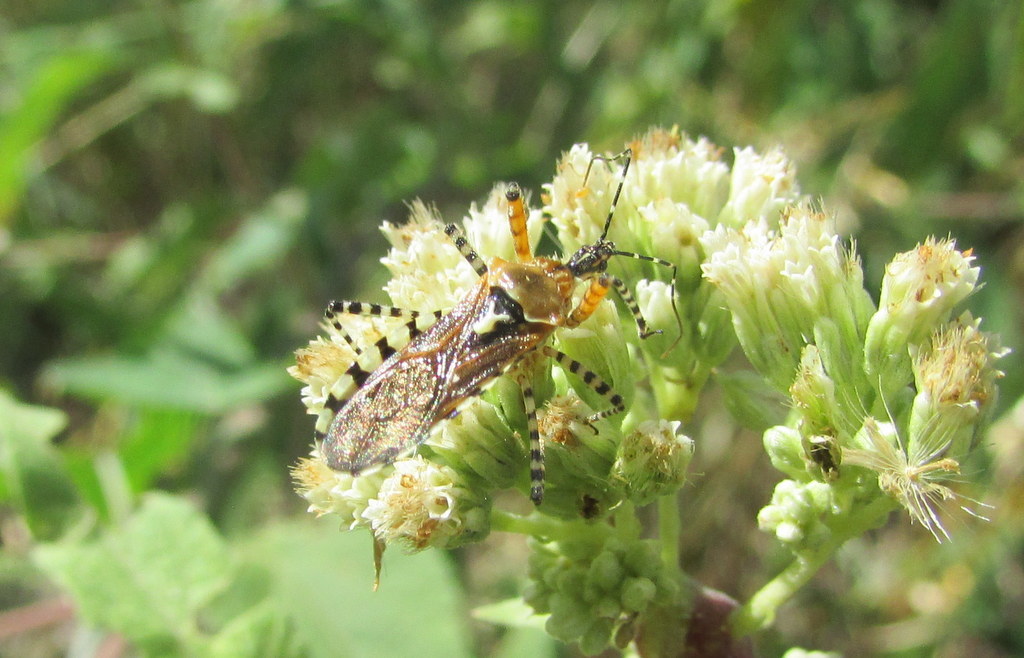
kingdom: Animalia
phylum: Arthropoda
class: Insecta
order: Hemiptera
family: Reduviidae
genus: Cosmoclopius
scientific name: Cosmoclopius nigroannulatus
